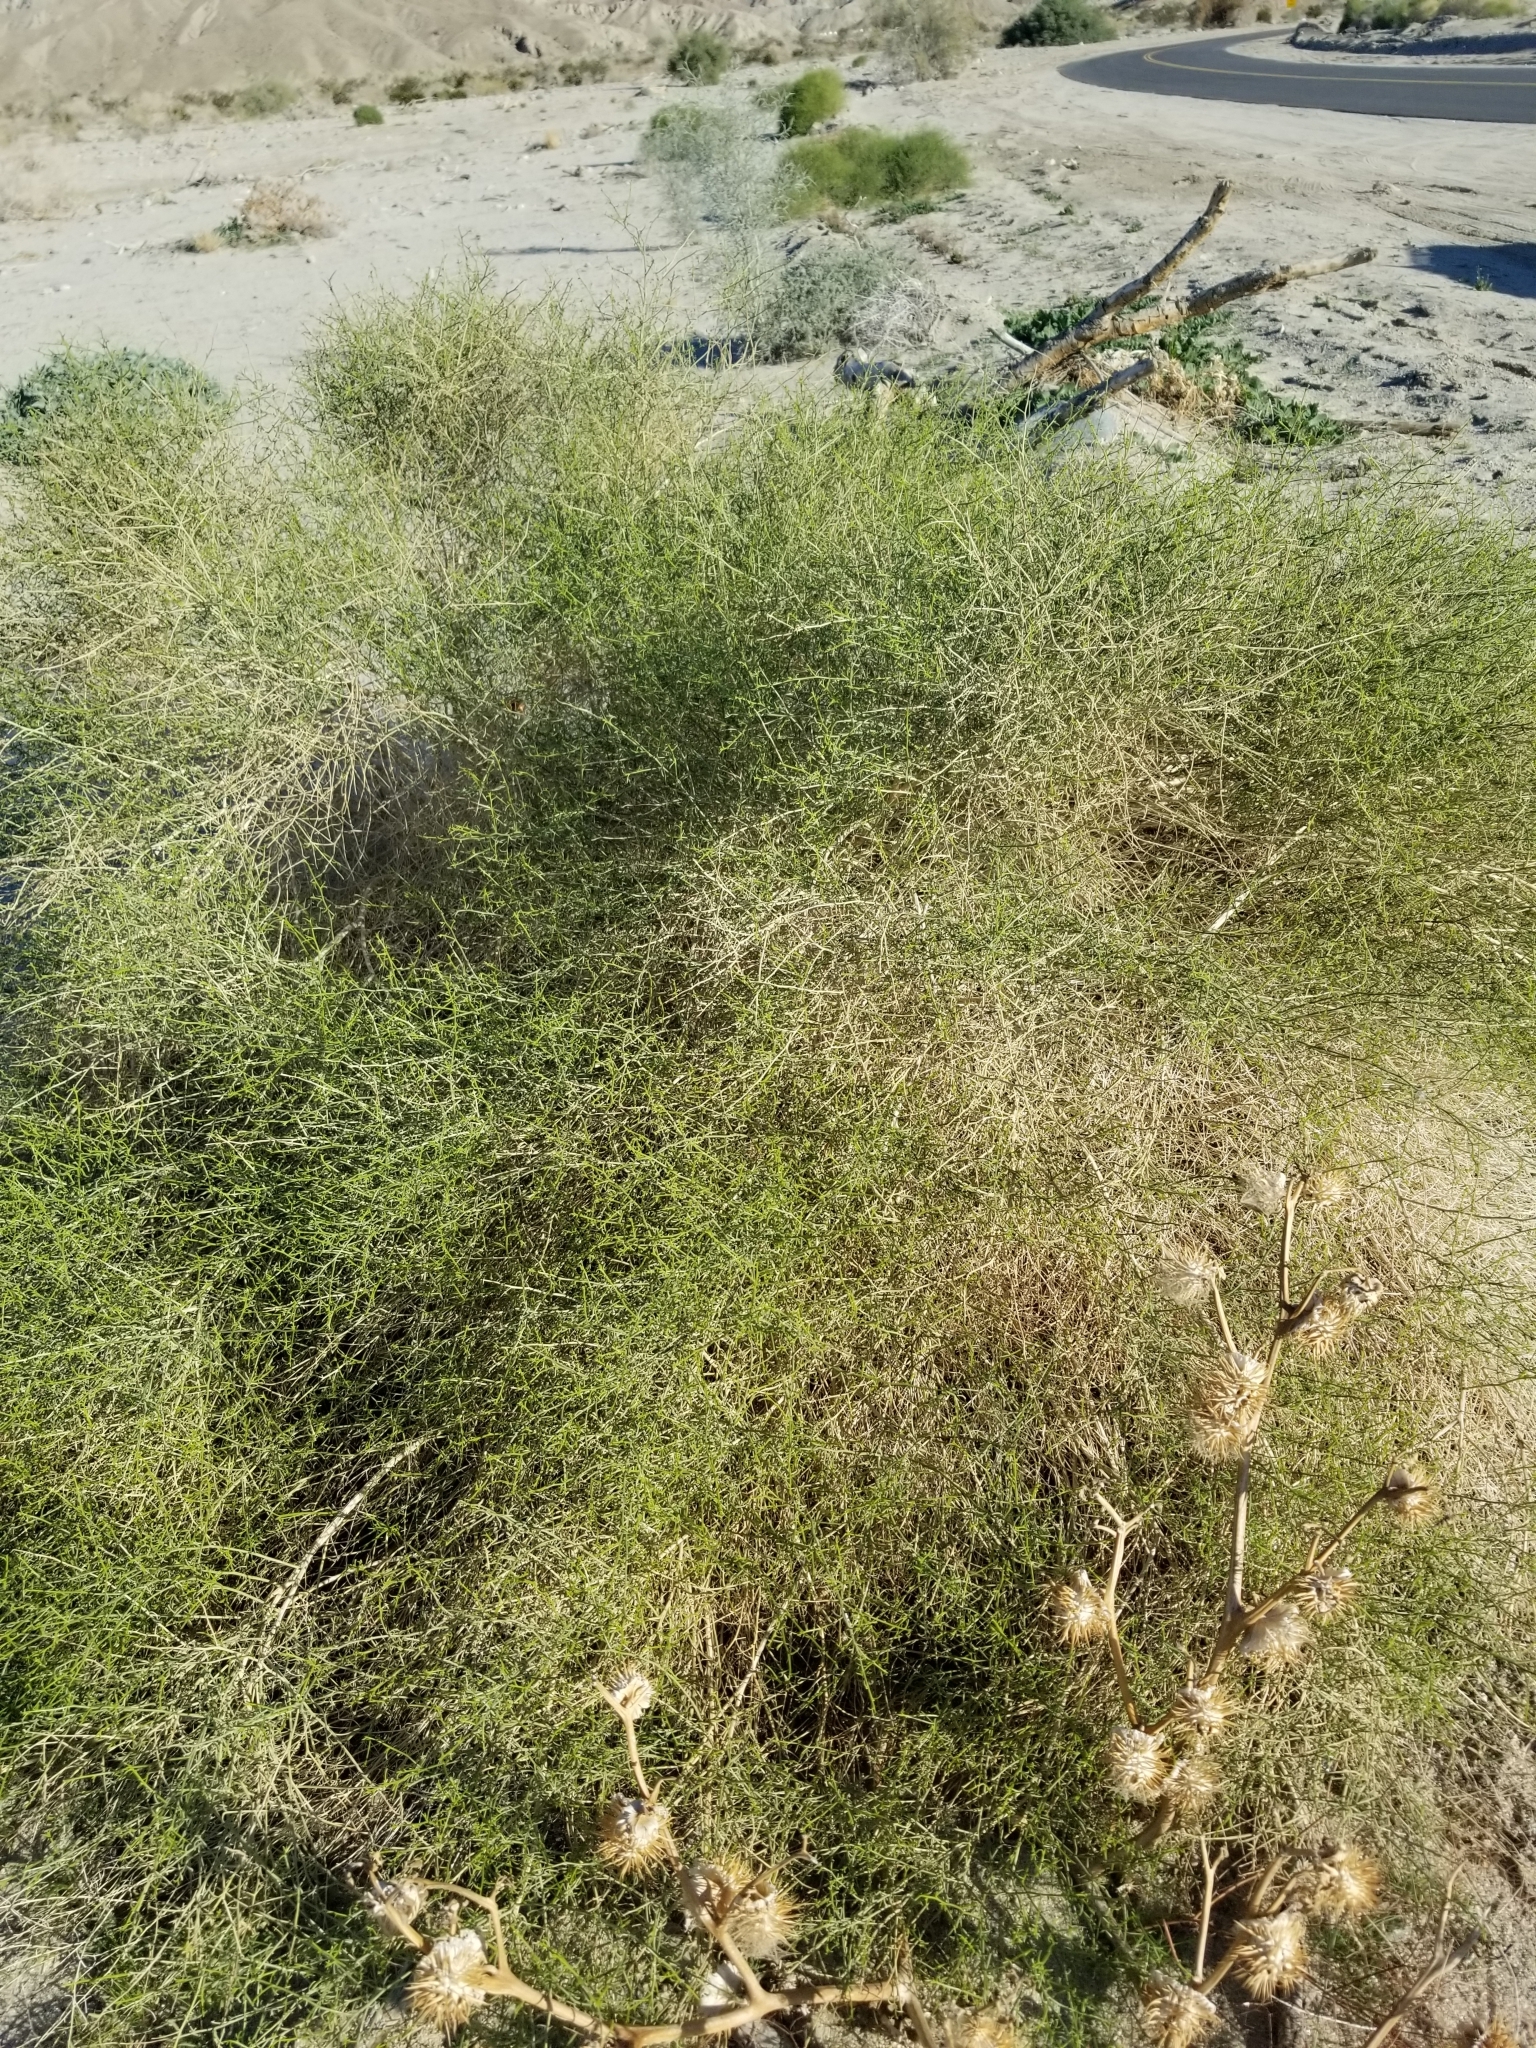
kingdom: Plantae
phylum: Tracheophyta
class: Magnoliopsida
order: Asterales
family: Asteraceae
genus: Ambrosia
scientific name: Ambrosia salsola
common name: Burrobrush
